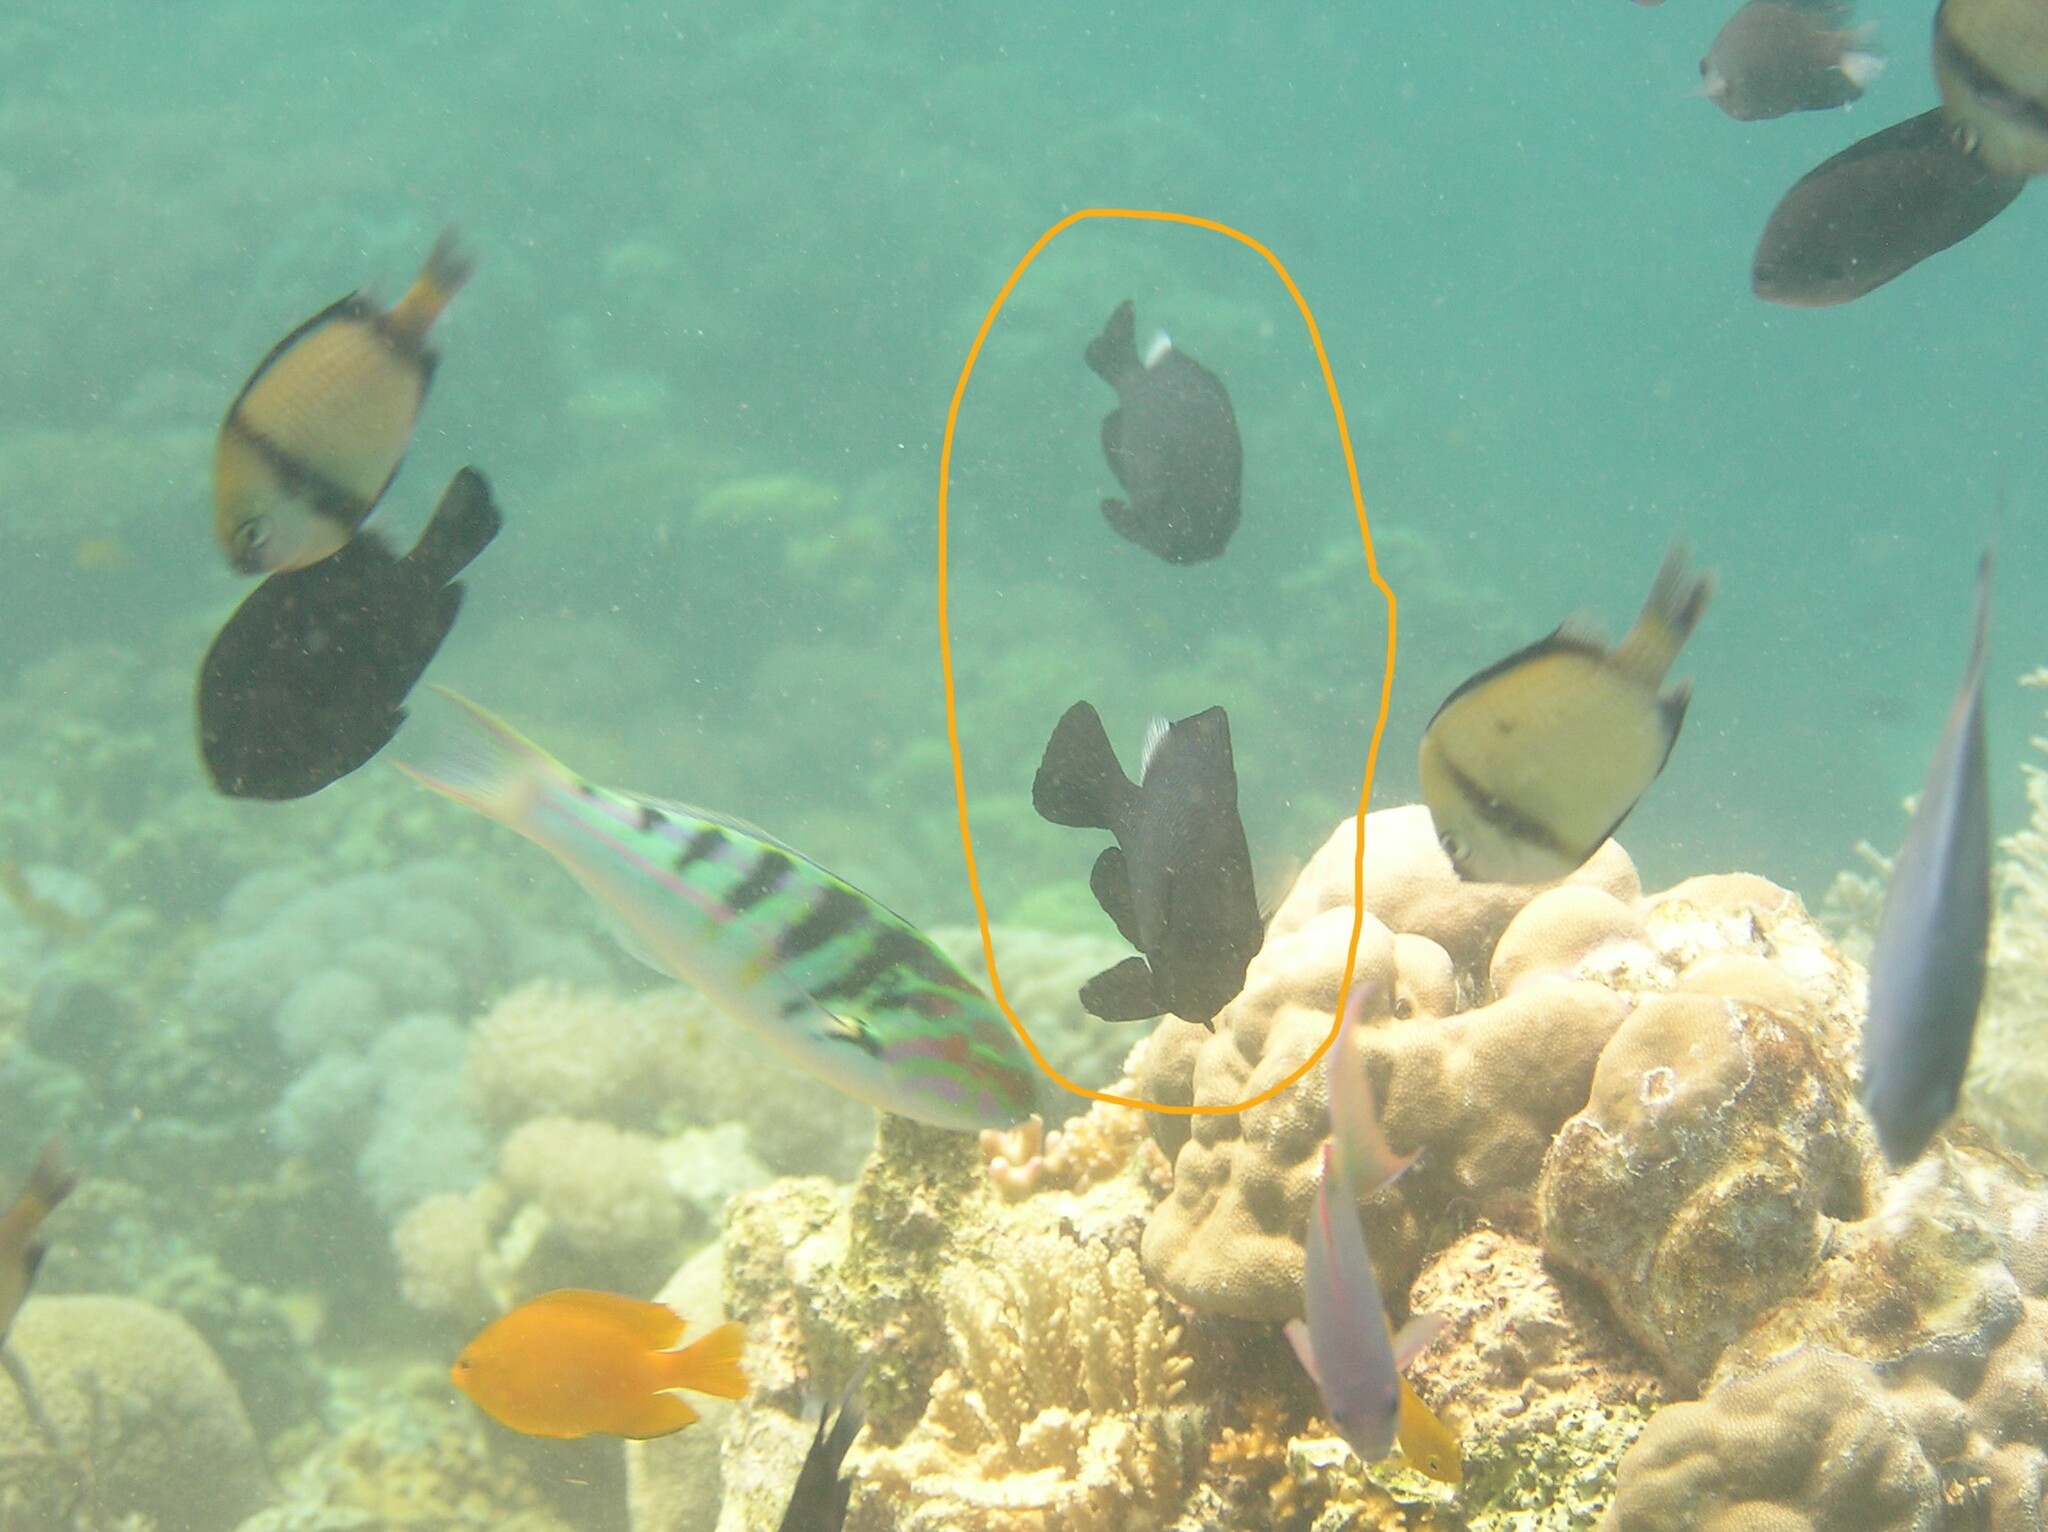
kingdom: Animalia
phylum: Chordata
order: Perciformes
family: Pomacentridae
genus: Dascyllus
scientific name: Dascyllus trimaculatus
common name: Threespot dascyllus
